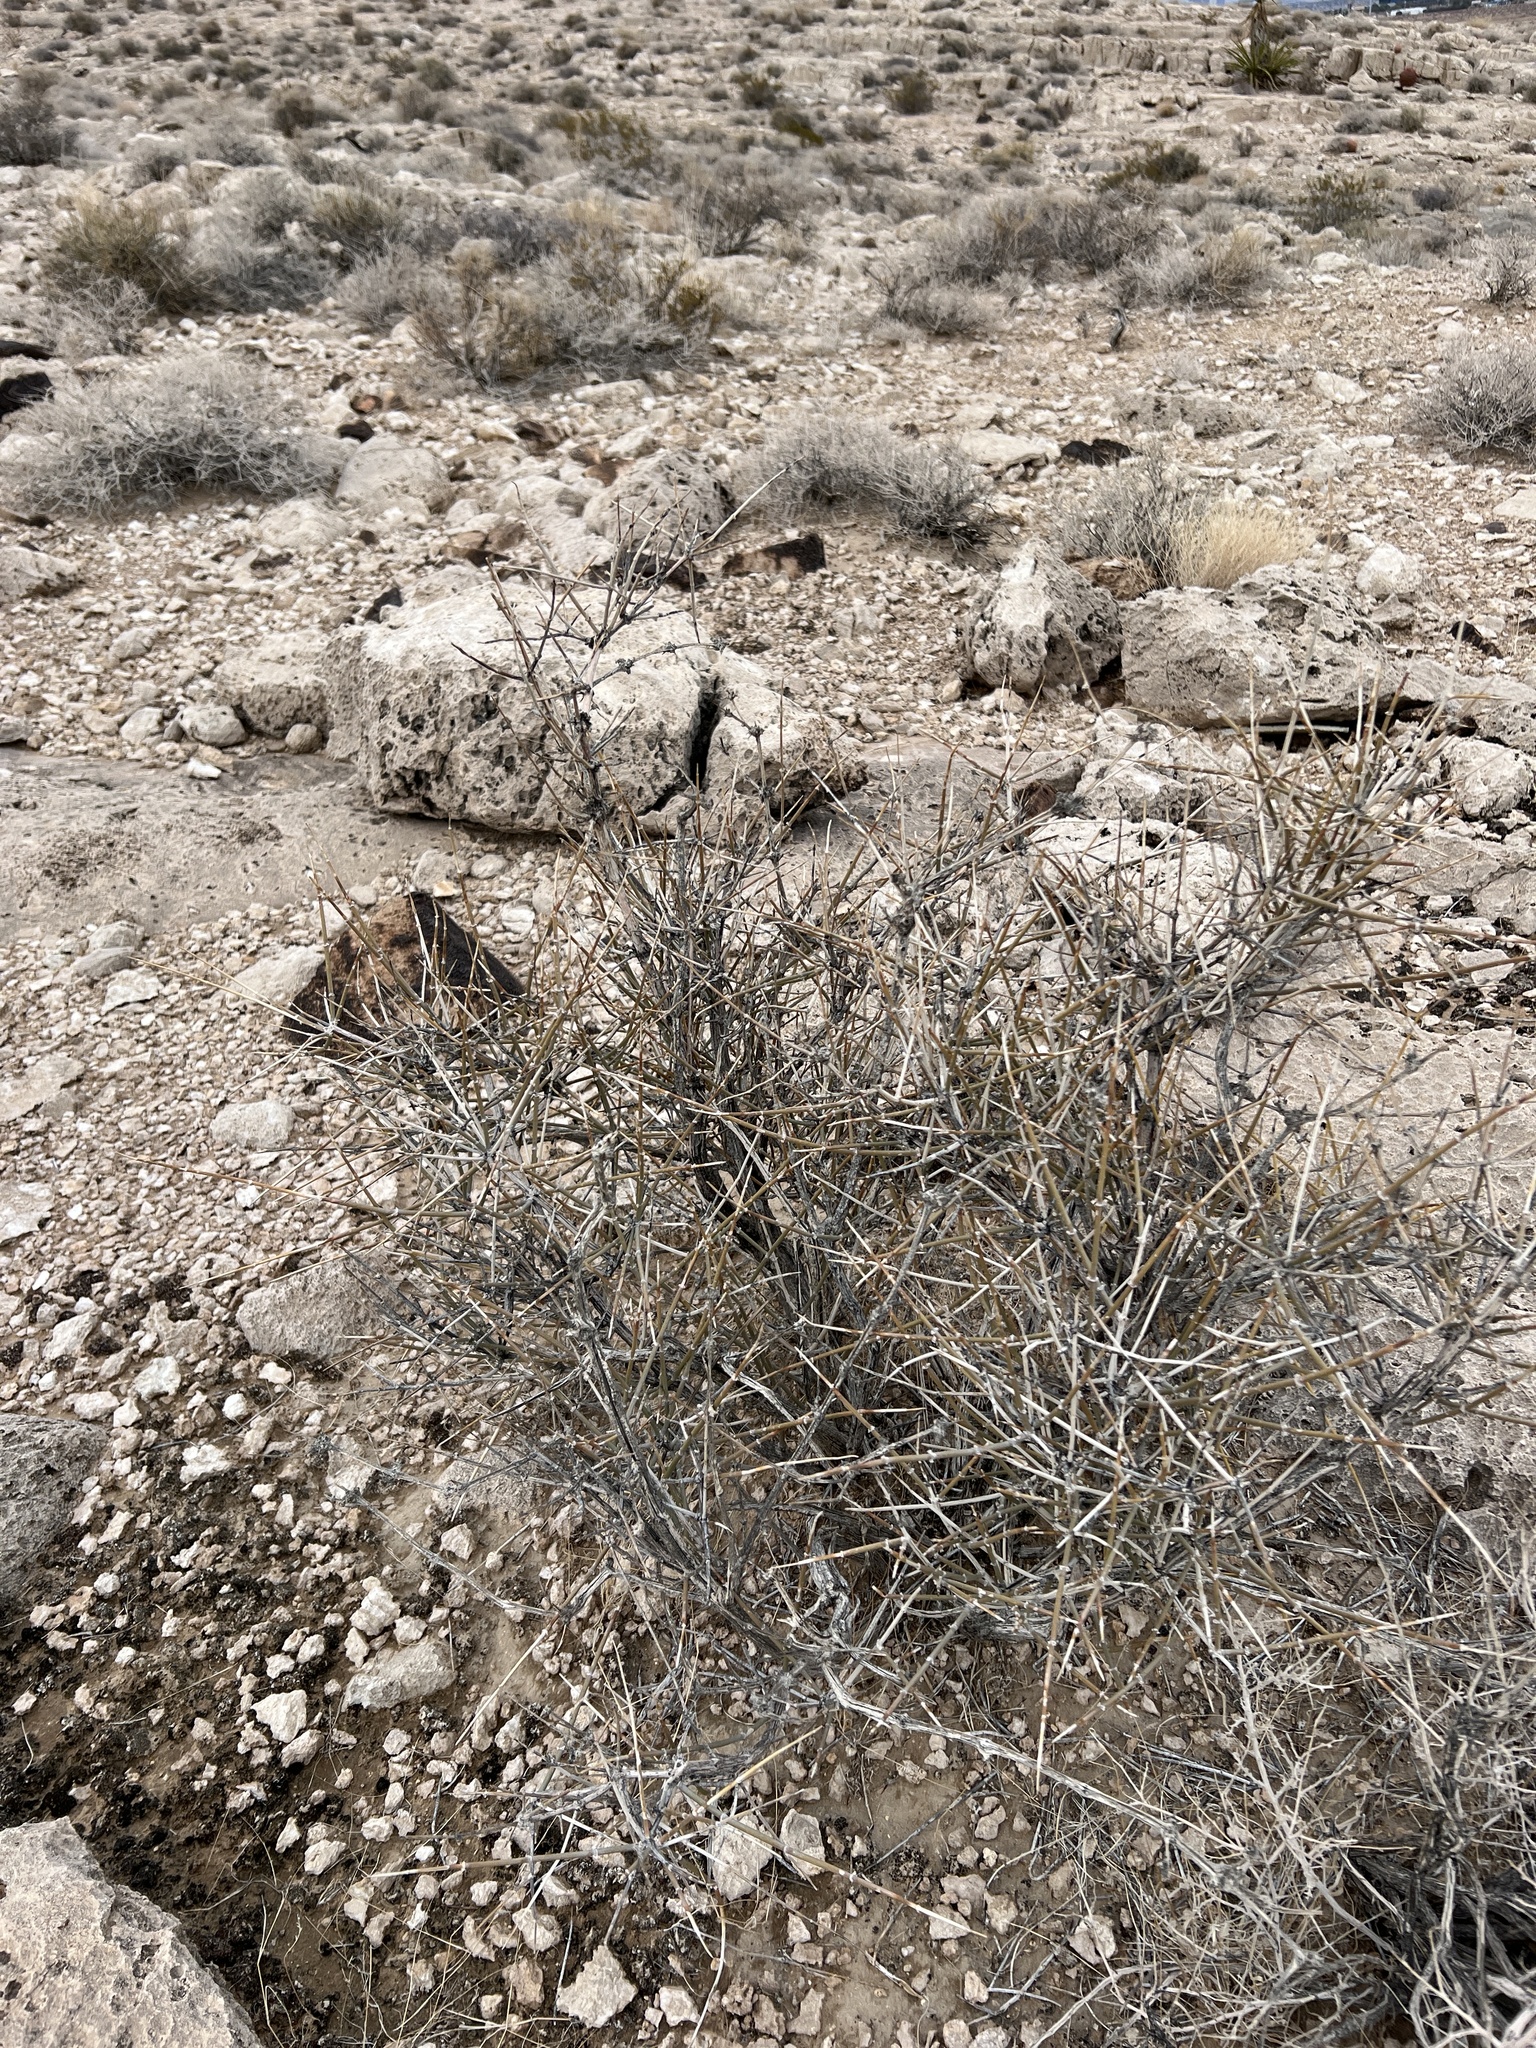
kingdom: Plantae
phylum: Tracheophyta
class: Gnetopsida
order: Ephedrales
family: Ephedraceae
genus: Ephedra
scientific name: Ephedra nevadensis
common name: Gray ephedra
